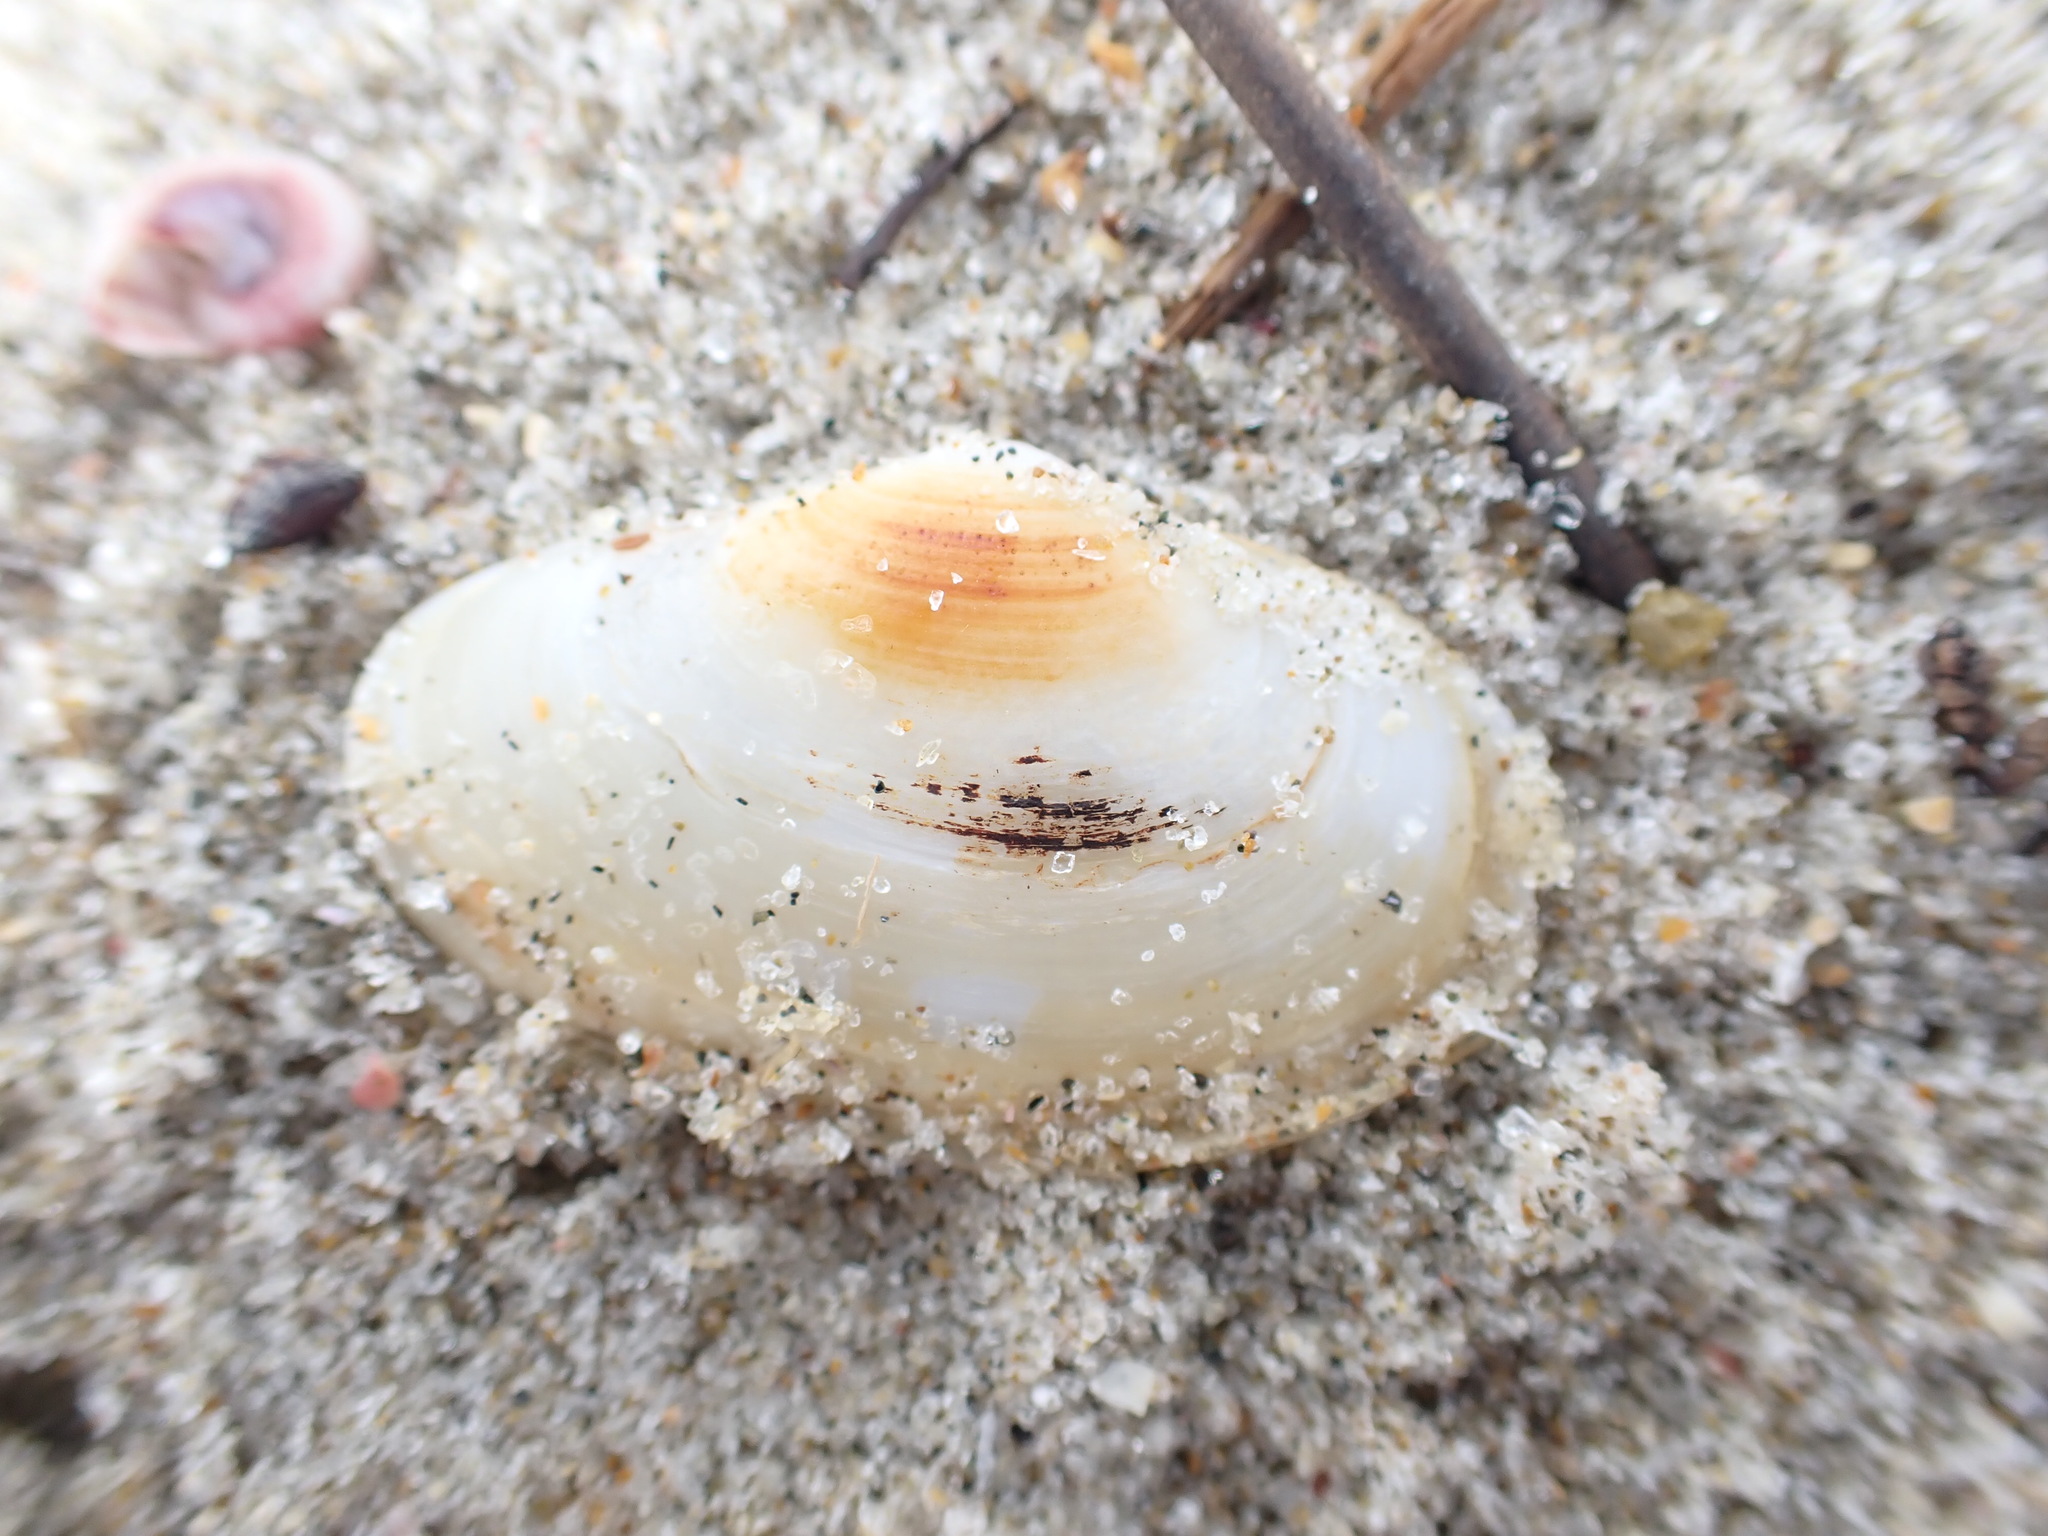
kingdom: Animalia
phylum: Mollusca
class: Bivalvia
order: Venerida
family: Mesodesmatidae
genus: Paphies
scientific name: Paphies australis
